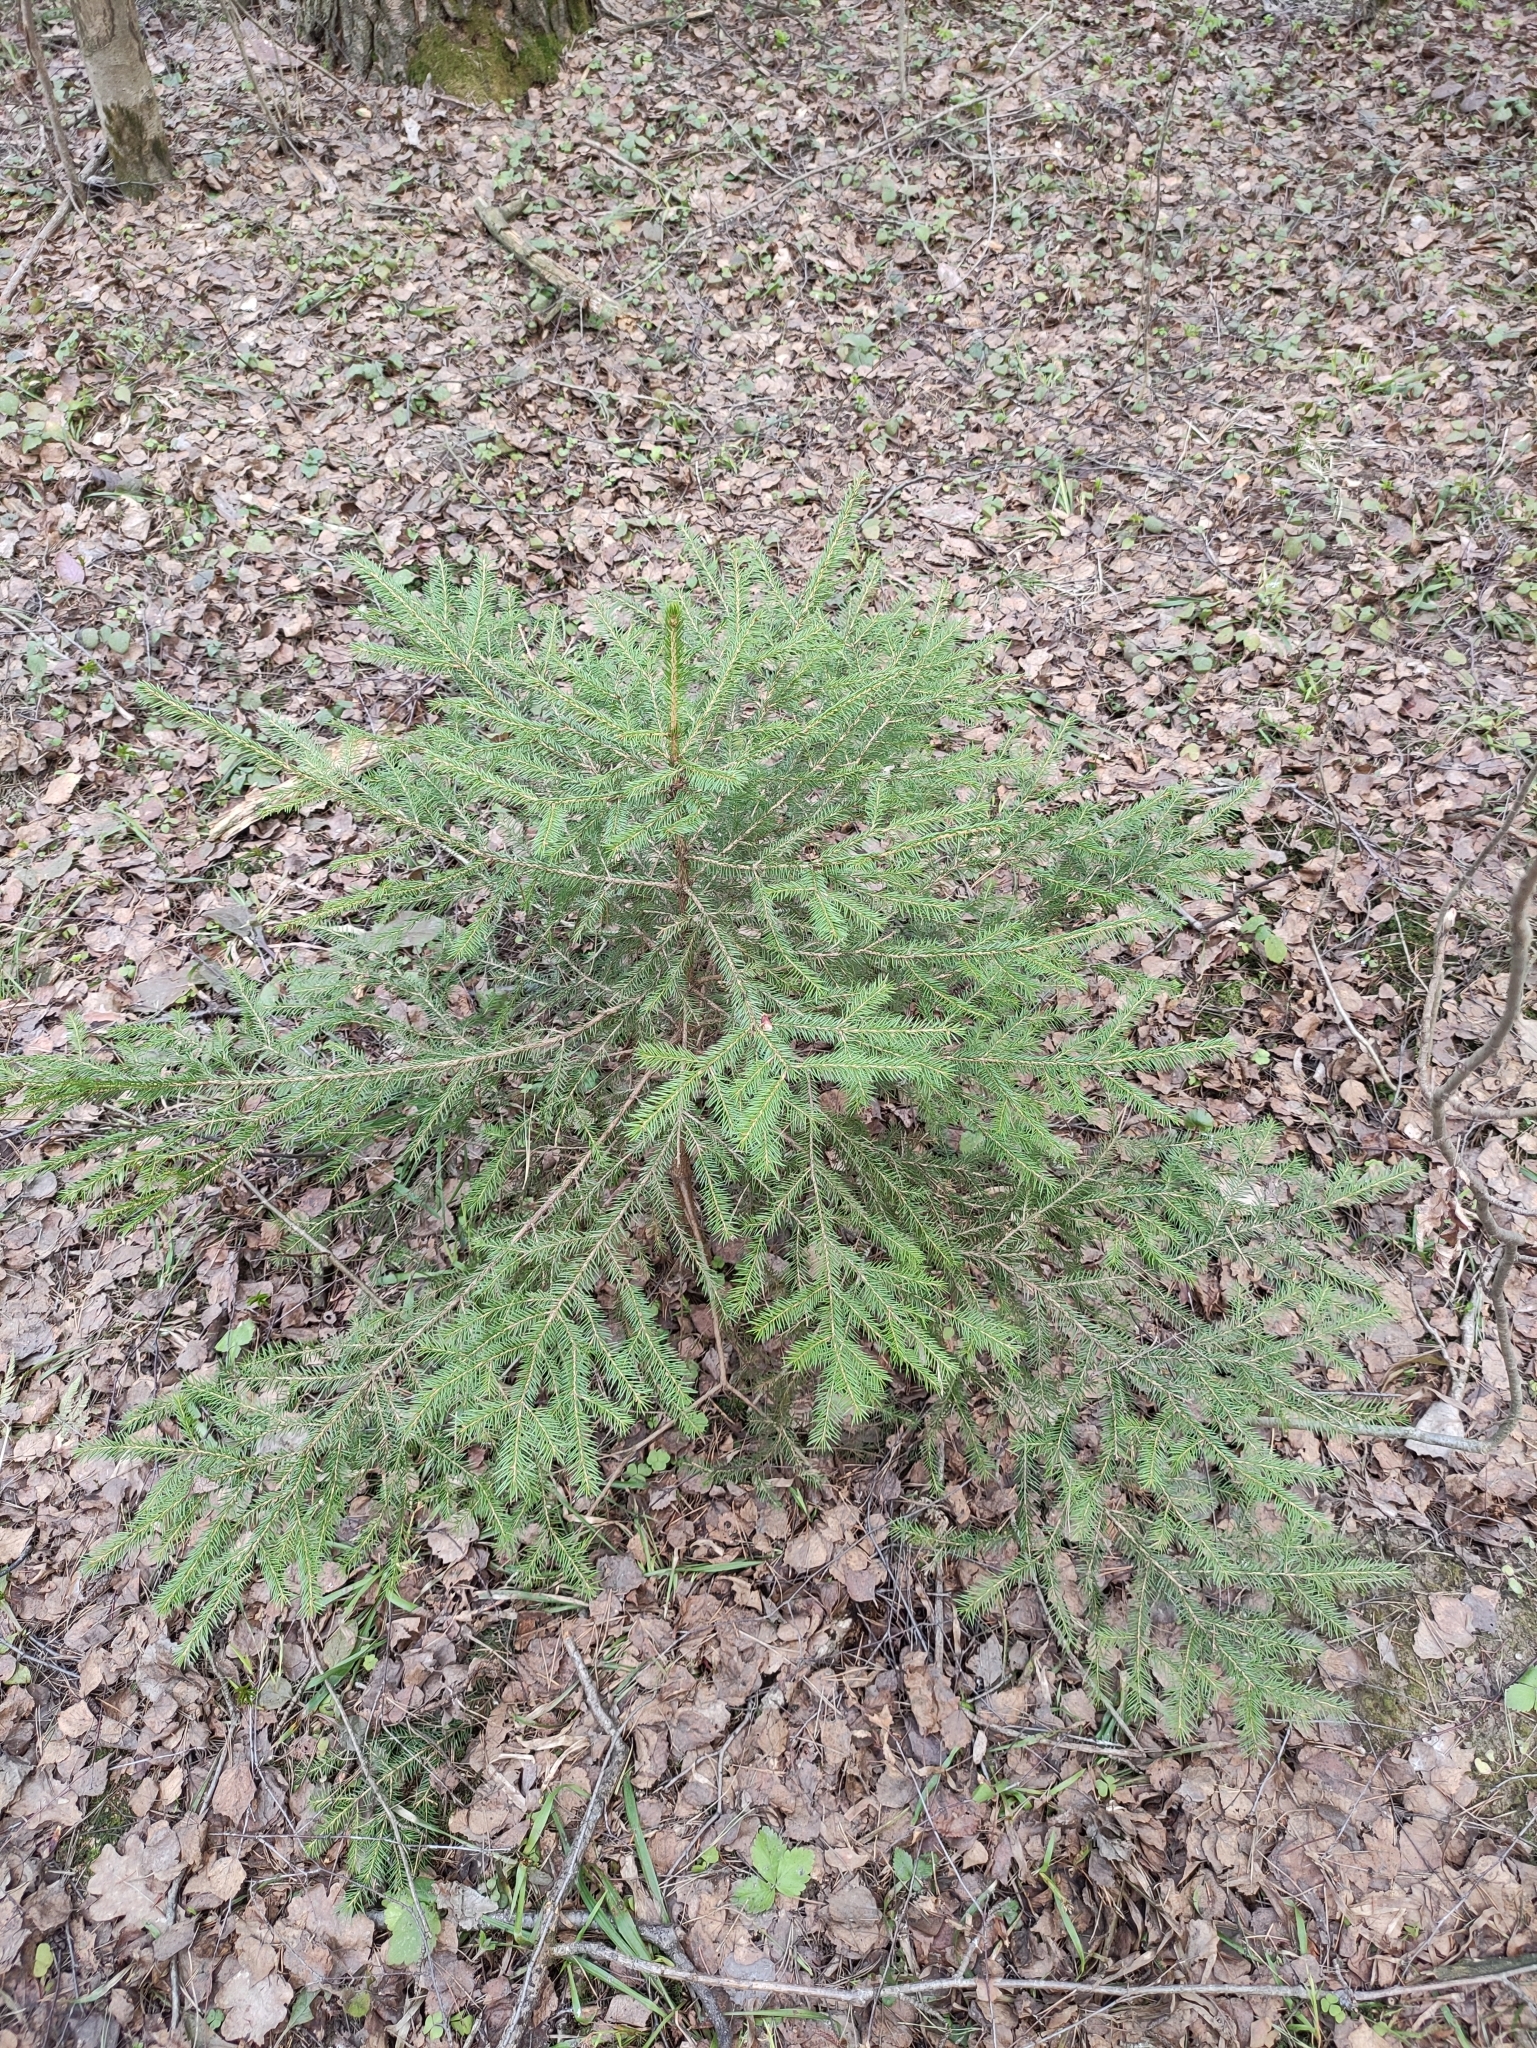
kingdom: Plantae
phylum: Tracheophyta
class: Pinopsida
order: Pinales
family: Pinaceae
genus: Picea
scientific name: Picea abies
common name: Norway spruce
